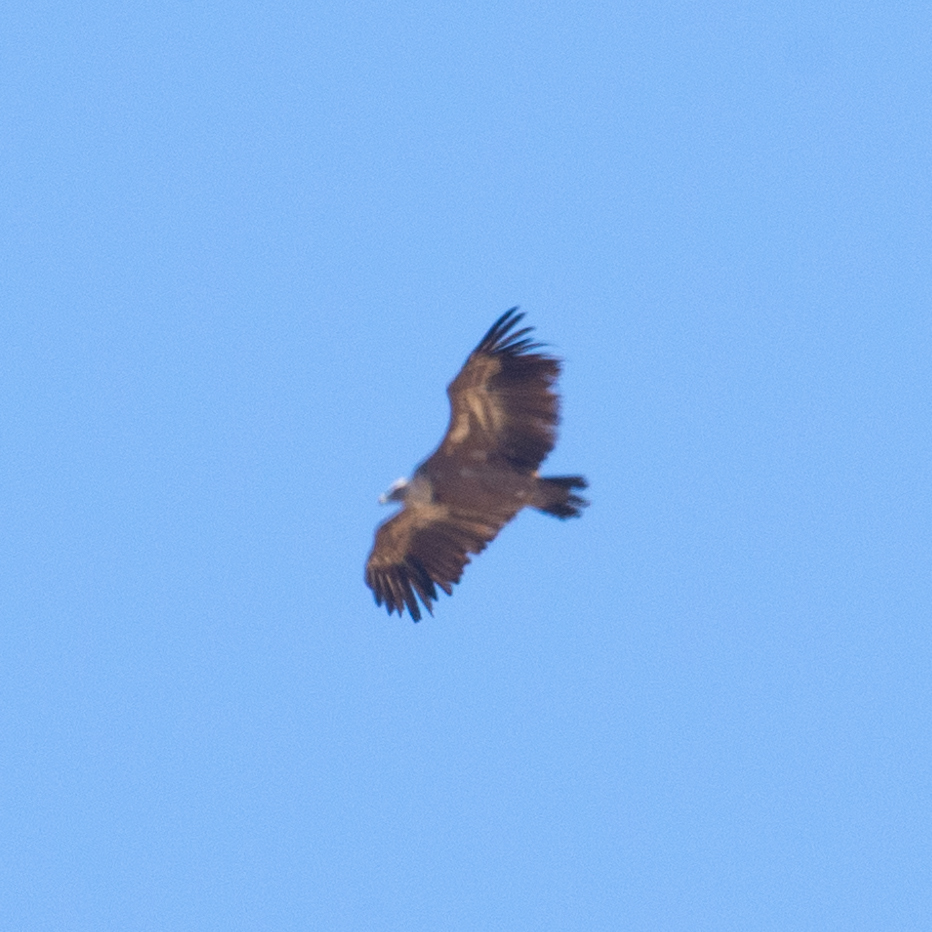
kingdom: Animalia
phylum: Chordata
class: Aves
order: Accipitriformes
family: Accipitridae
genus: Gyps
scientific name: Gyps fulvus
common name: Griffon vulture
